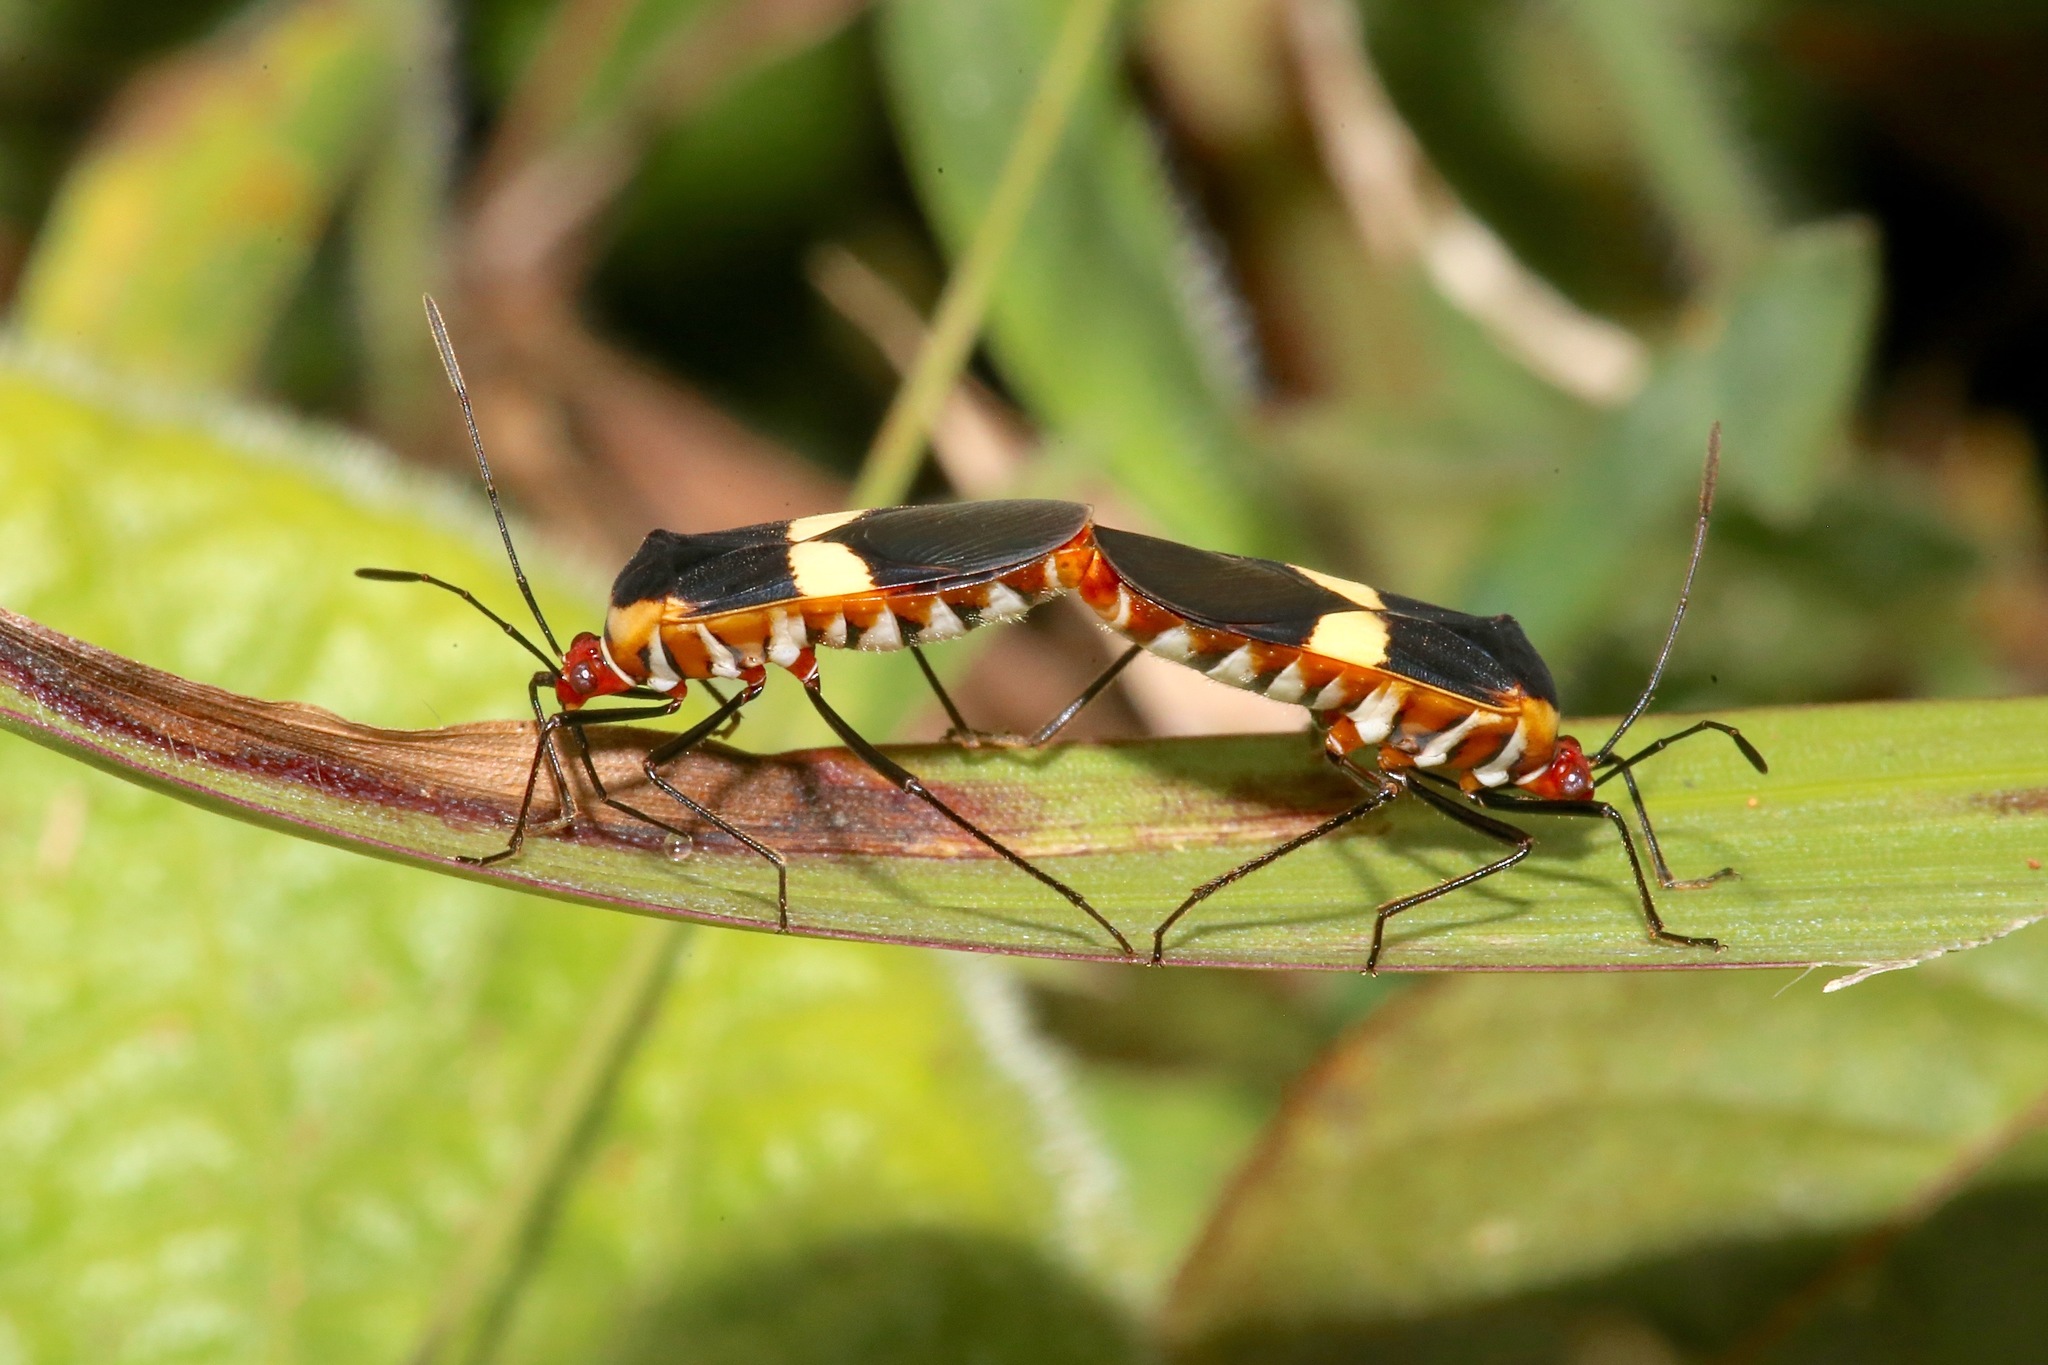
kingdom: Animalia
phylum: Arthropoda
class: Insecta
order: Hemiptera
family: Coreidae
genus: Hypselonotus
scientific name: Hypselonotus interruptus
